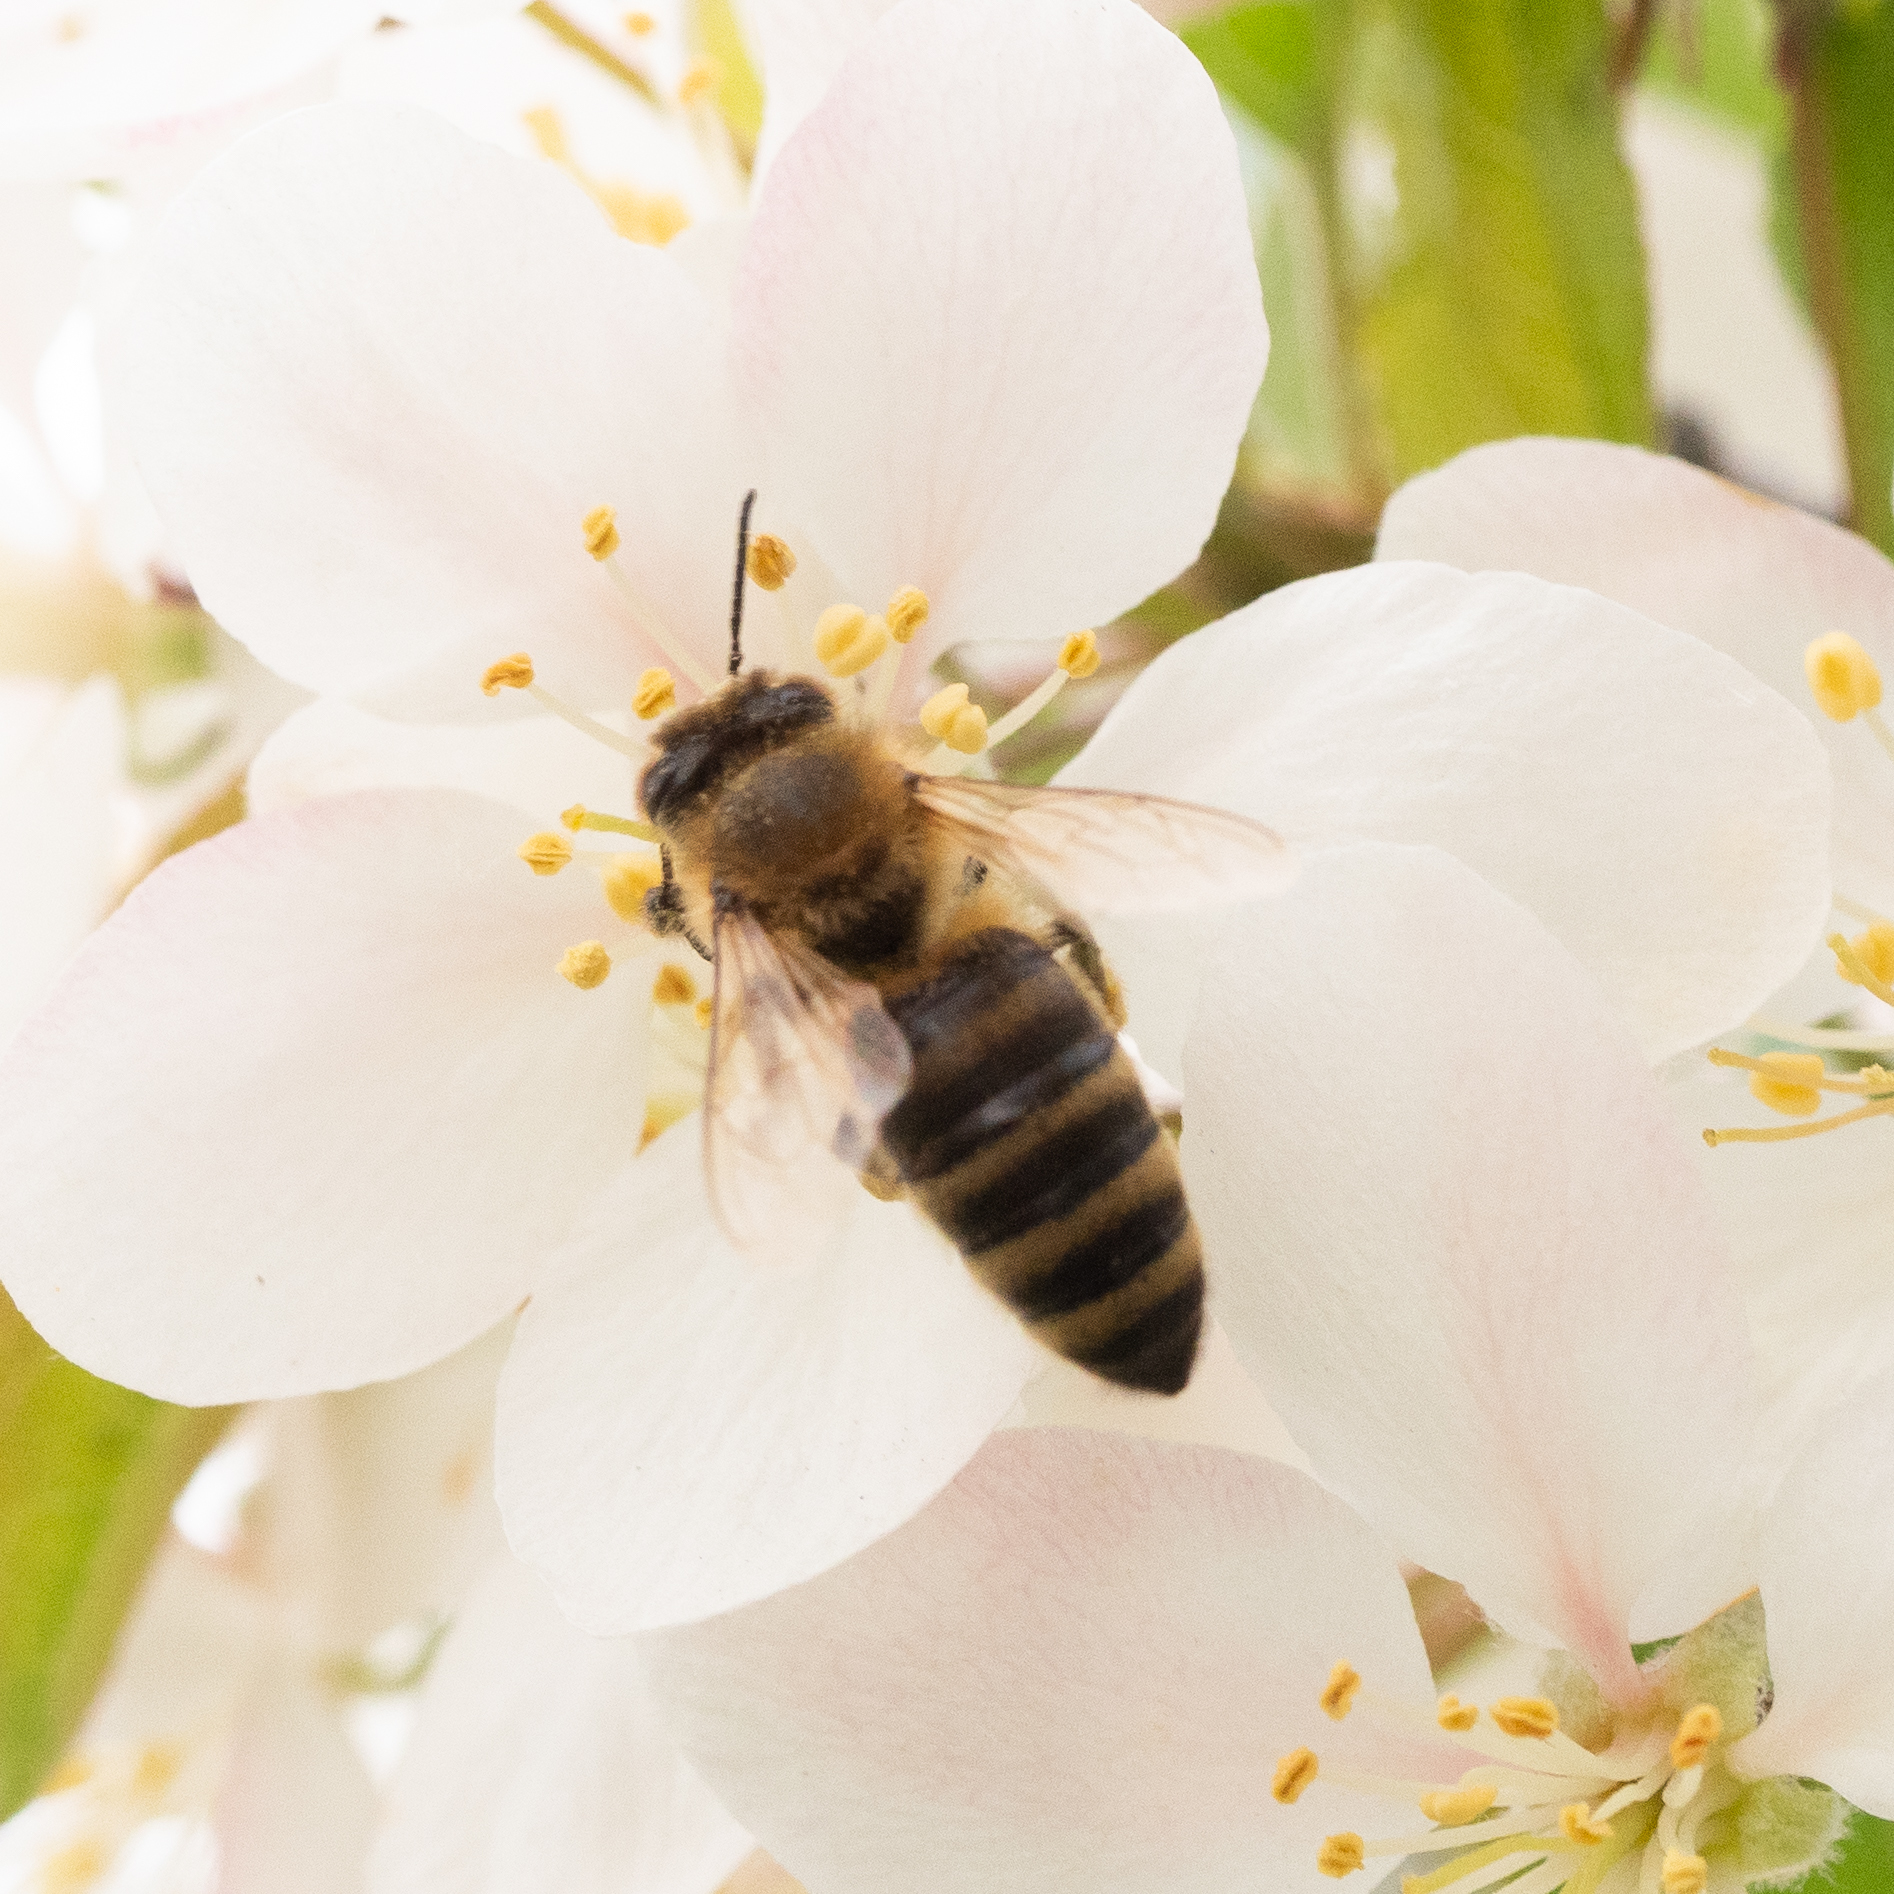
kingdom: Animalia
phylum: Arthropoda
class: Insecta
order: Hymenoptera
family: Apidae
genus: Apis
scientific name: Apis mellifera
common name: Honey bee
